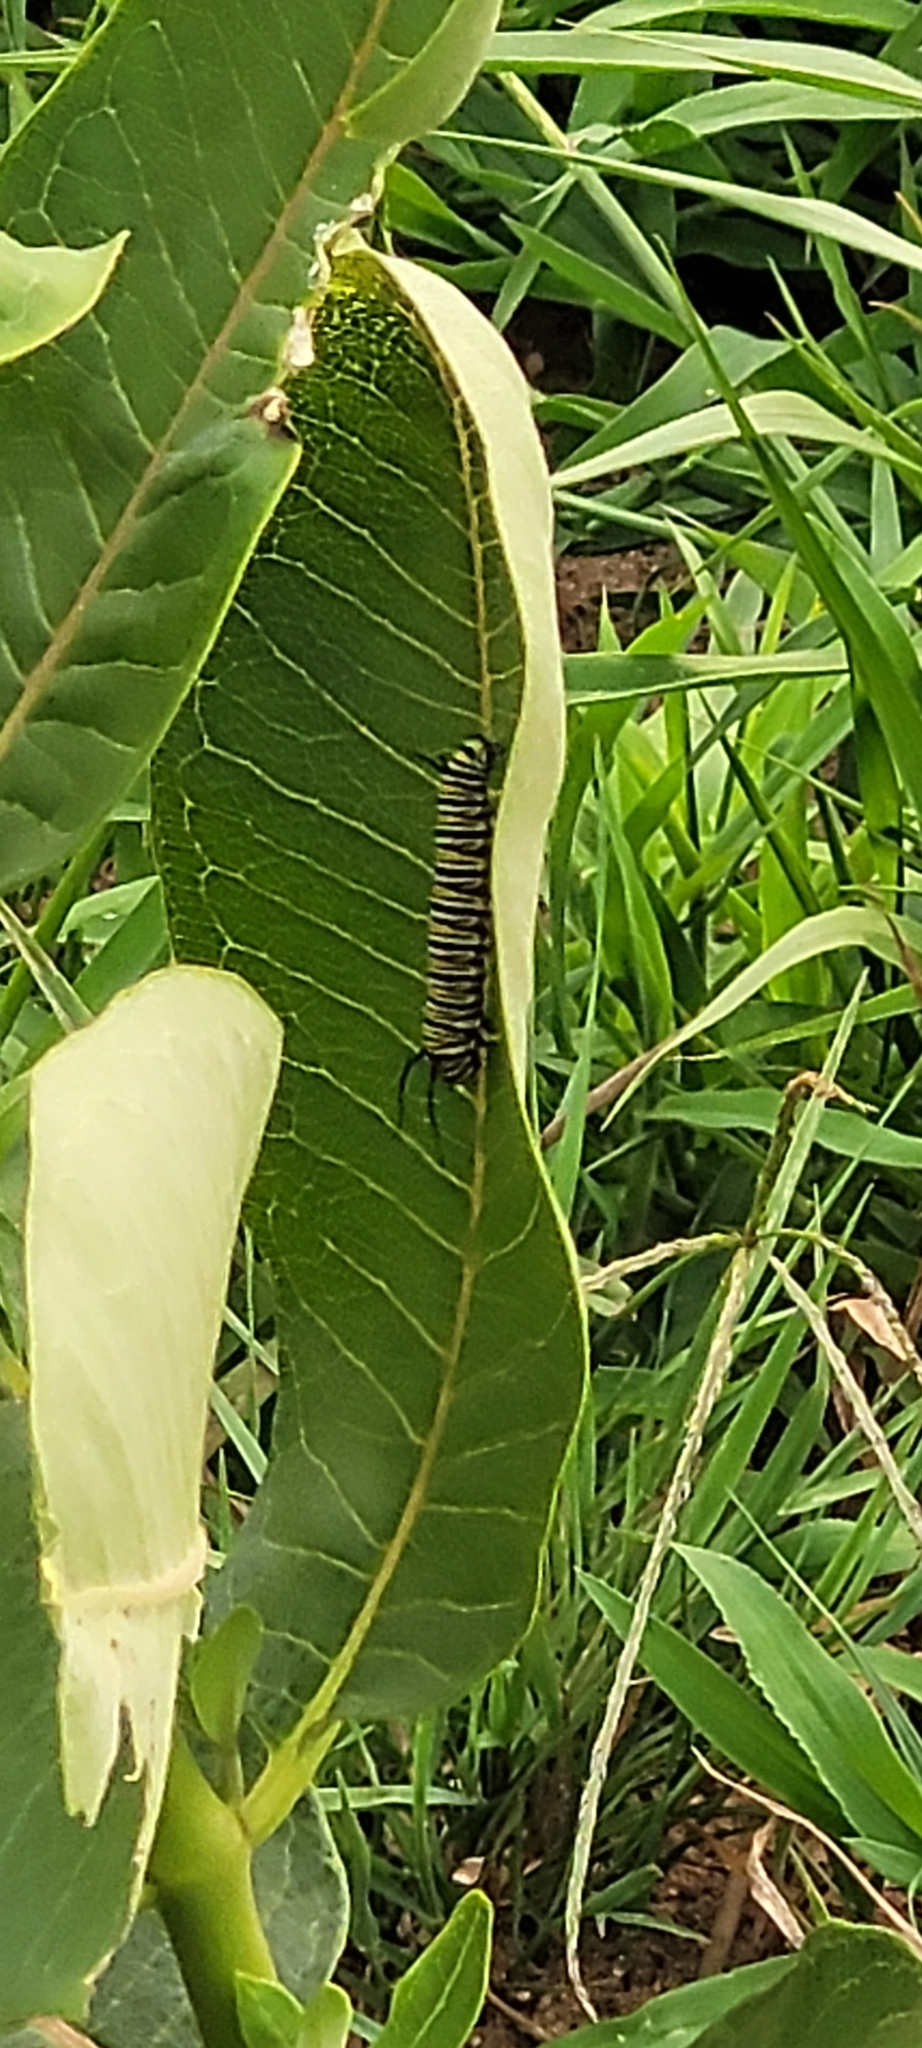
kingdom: Animalia
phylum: Arthropoda
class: Insecta
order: Lepidoptera
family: Nymphalidae
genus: Danaus
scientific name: Danaus plexippus
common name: Monarch
